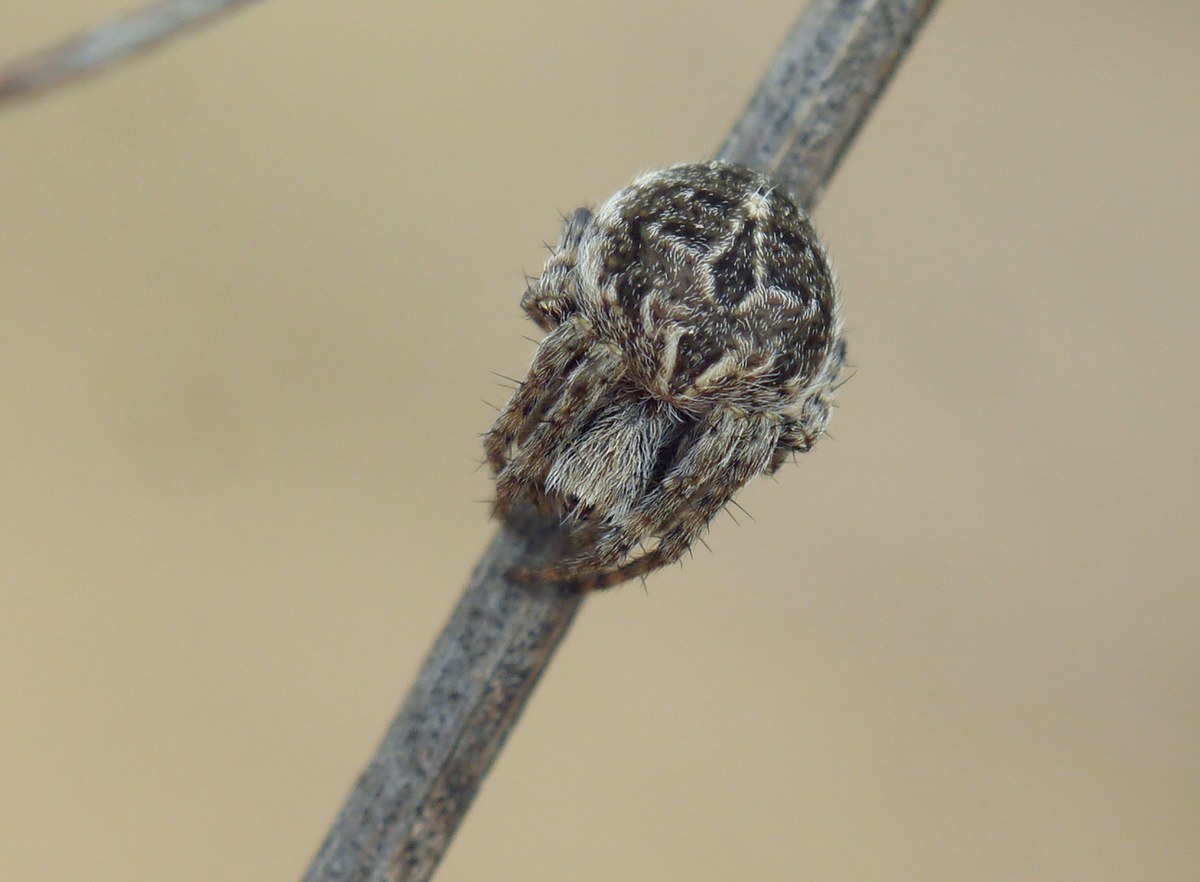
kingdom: Animalia
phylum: Arthropoda
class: Arachnida
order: Araneae
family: Araneidae
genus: Agalenatea
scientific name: Agalenatea redii
